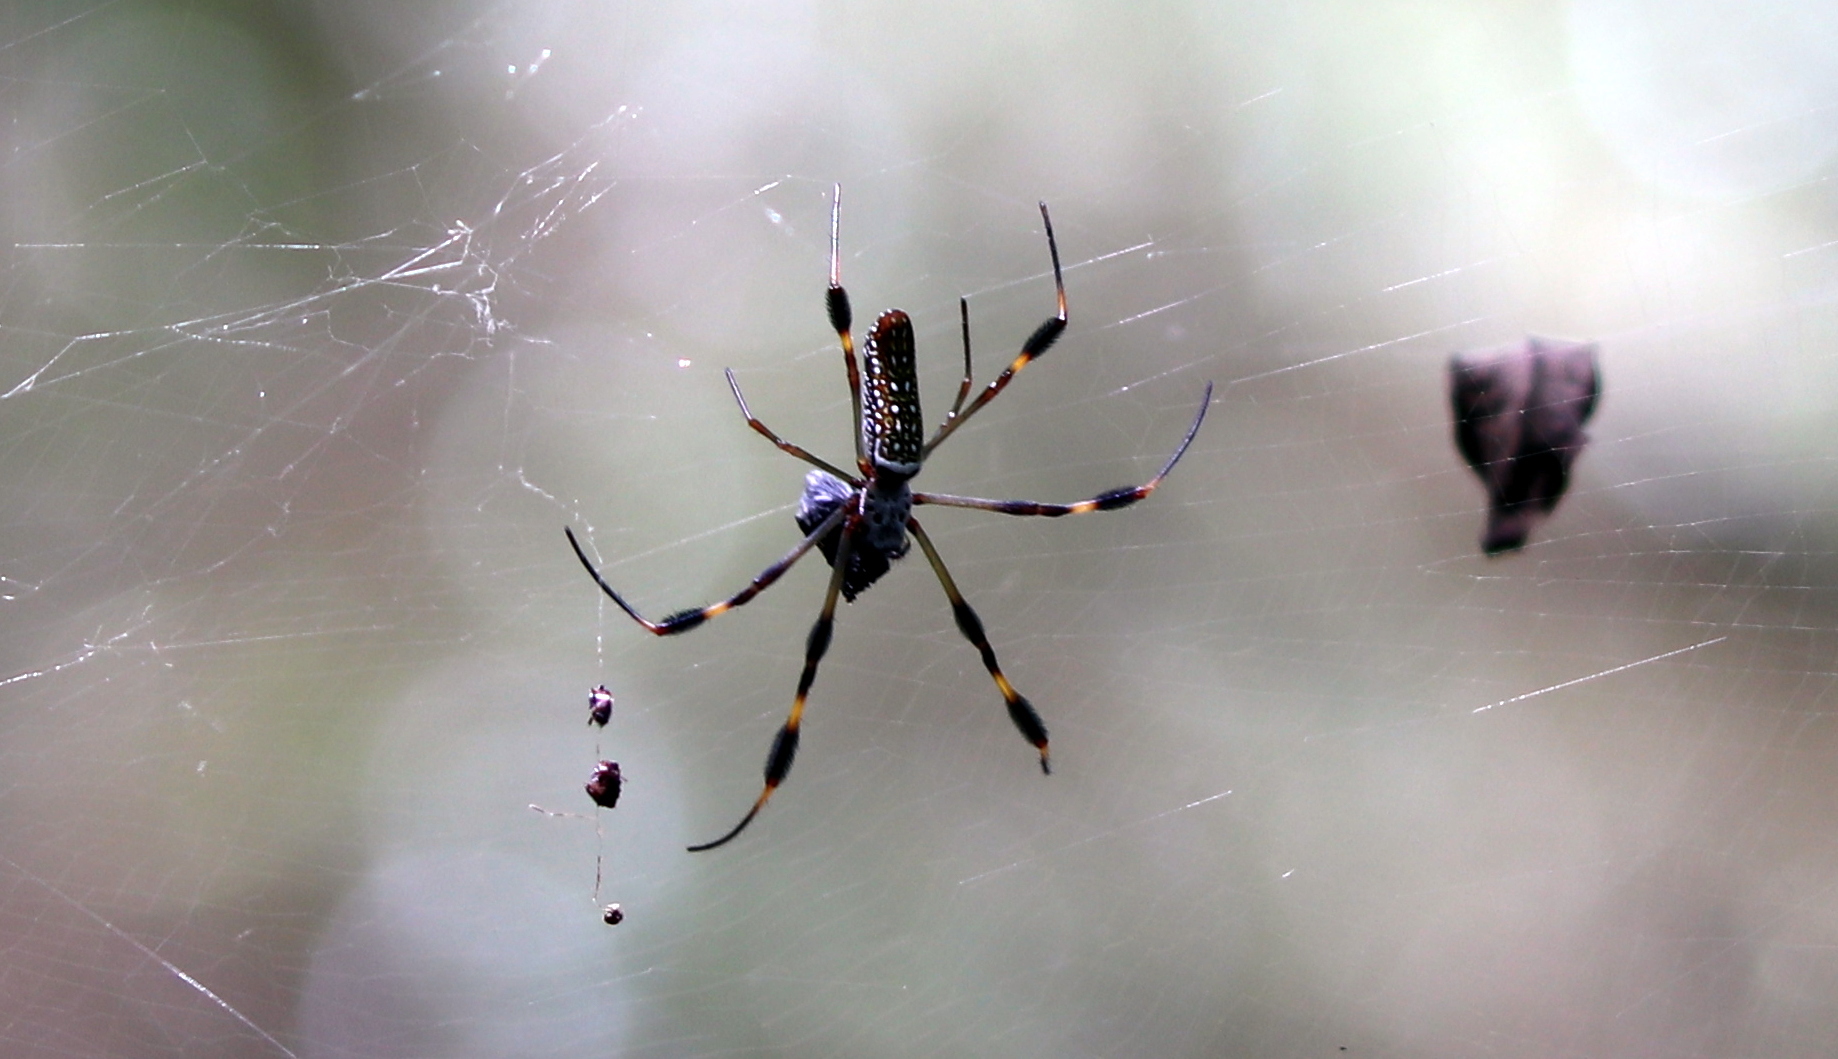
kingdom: Animalia
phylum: Arthropoda
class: Arachnida
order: Araneae
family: Araneidae
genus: Trichonephila
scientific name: Trichonephila clavipes
